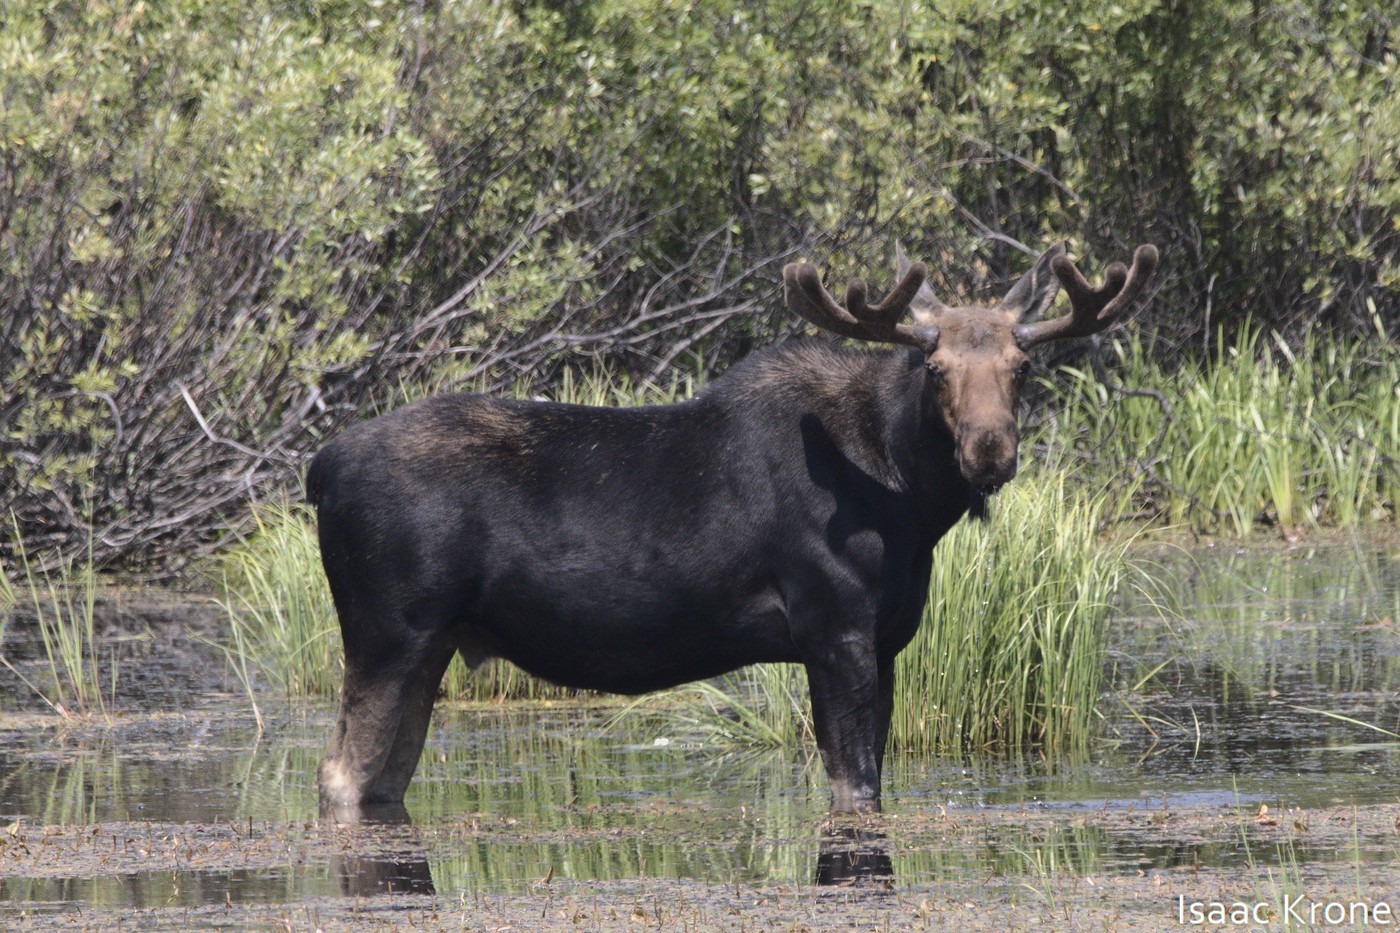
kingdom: Animalia
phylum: Chordata
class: Mammalia
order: Artiodactyla
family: Cervidae
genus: Alces
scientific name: Alces alces
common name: Moose
